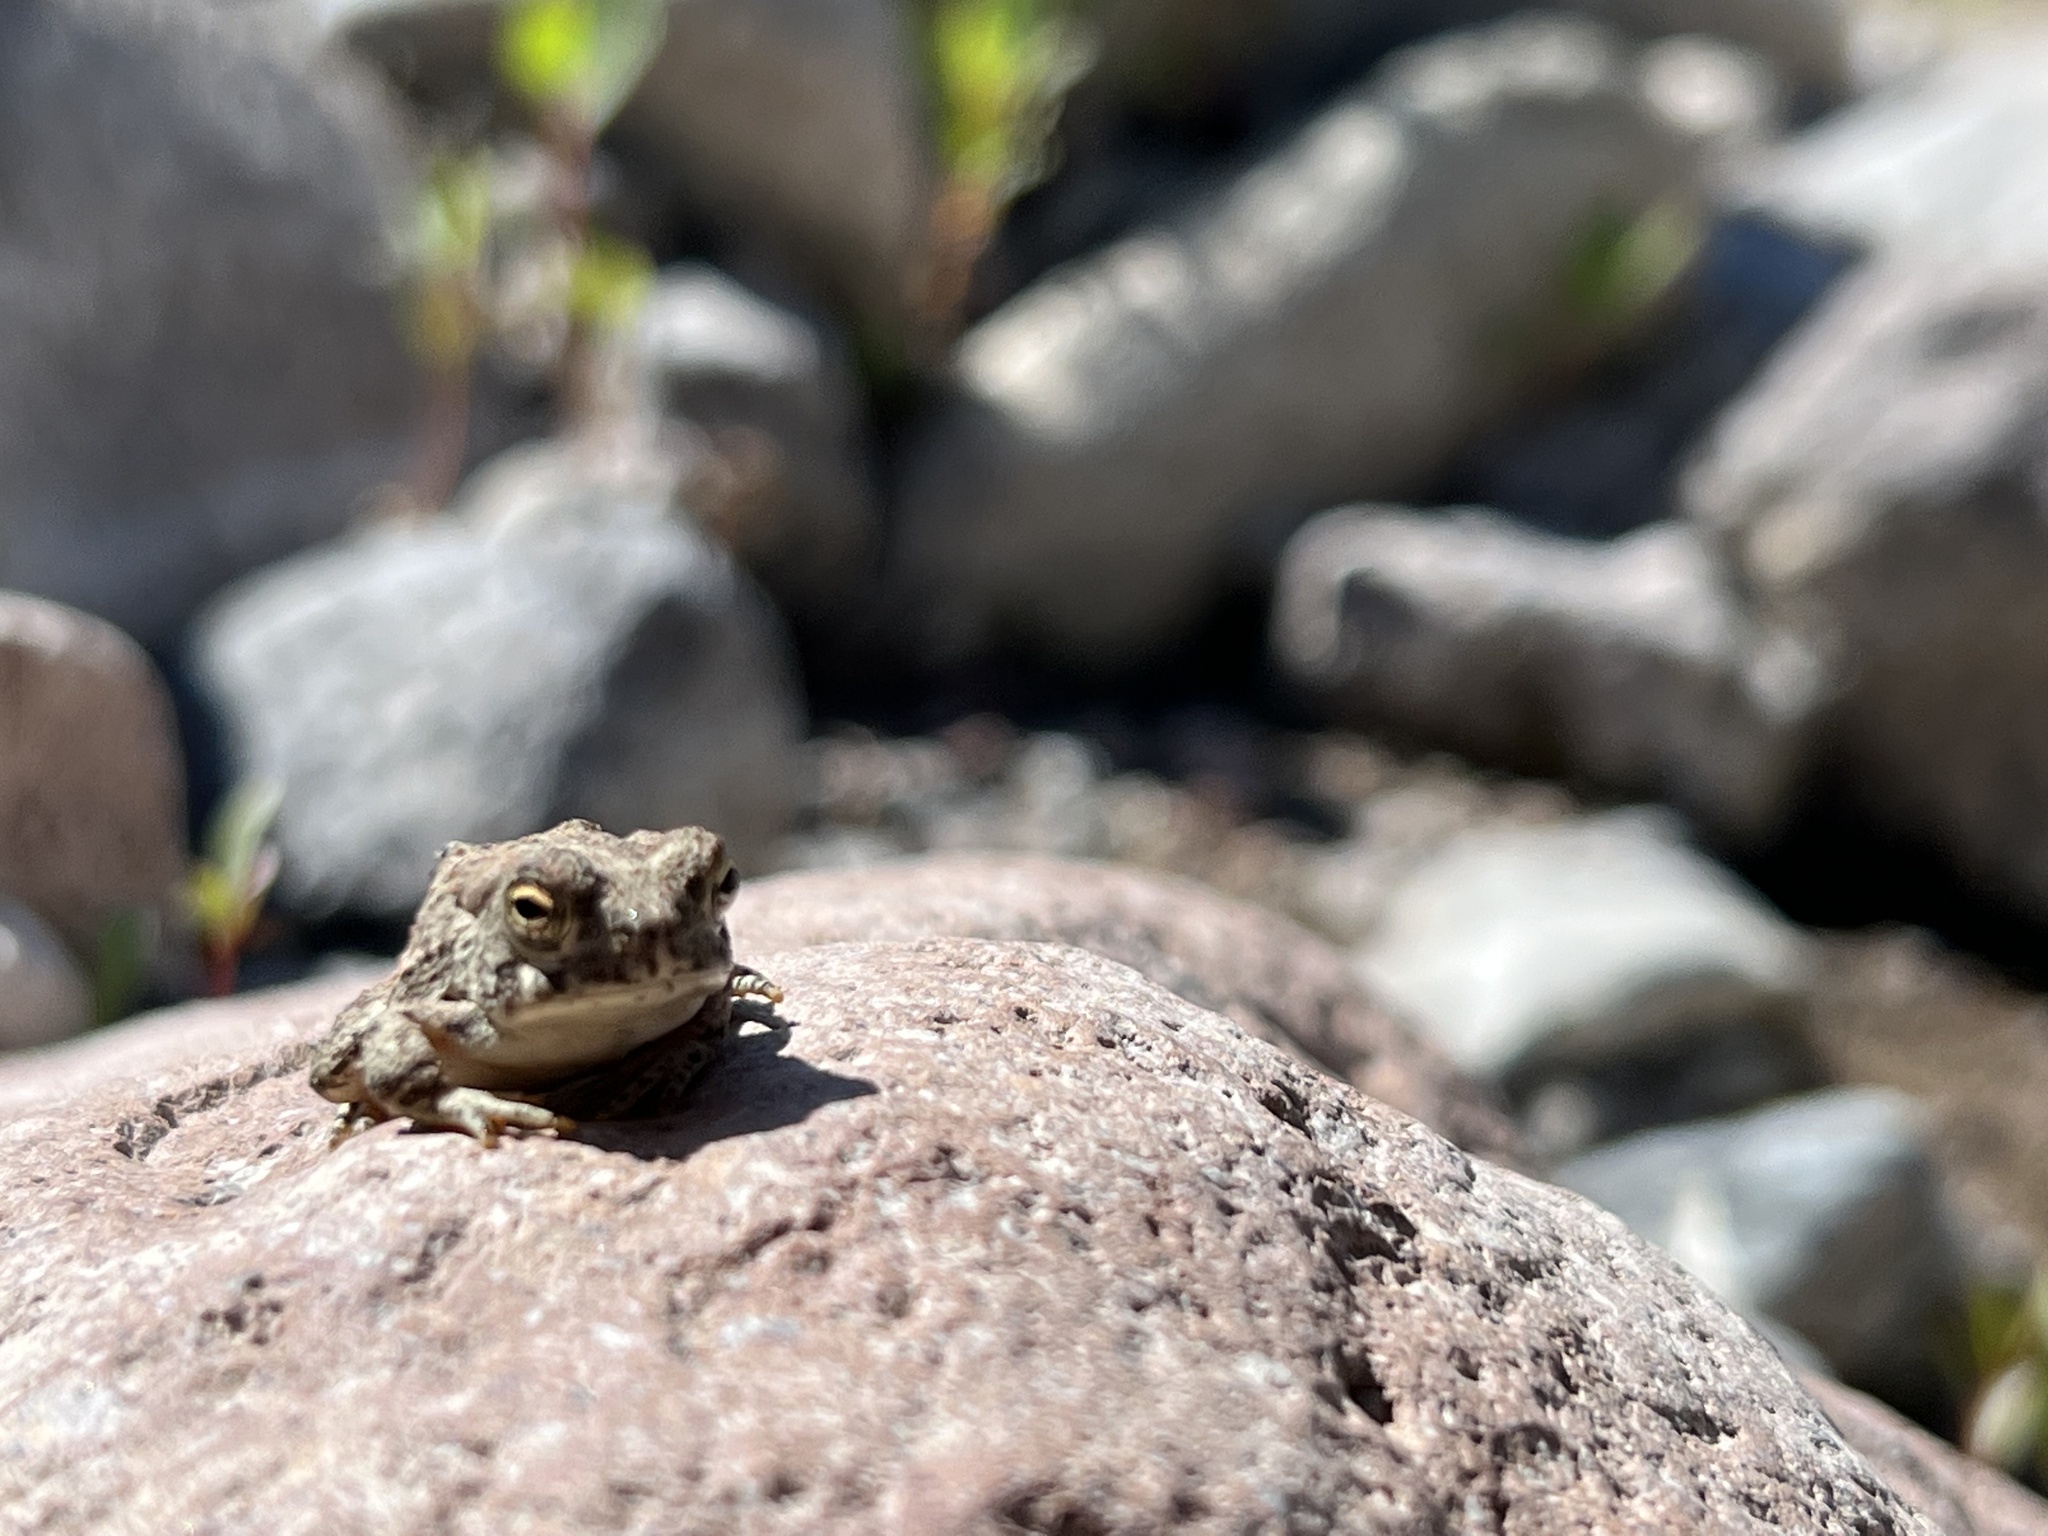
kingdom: Animalia
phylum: Chordata
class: Amphibia
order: Anura
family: Bufonidae
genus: Anaxyrus
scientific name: Anaxyrus microscaphus
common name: Arizona toad
